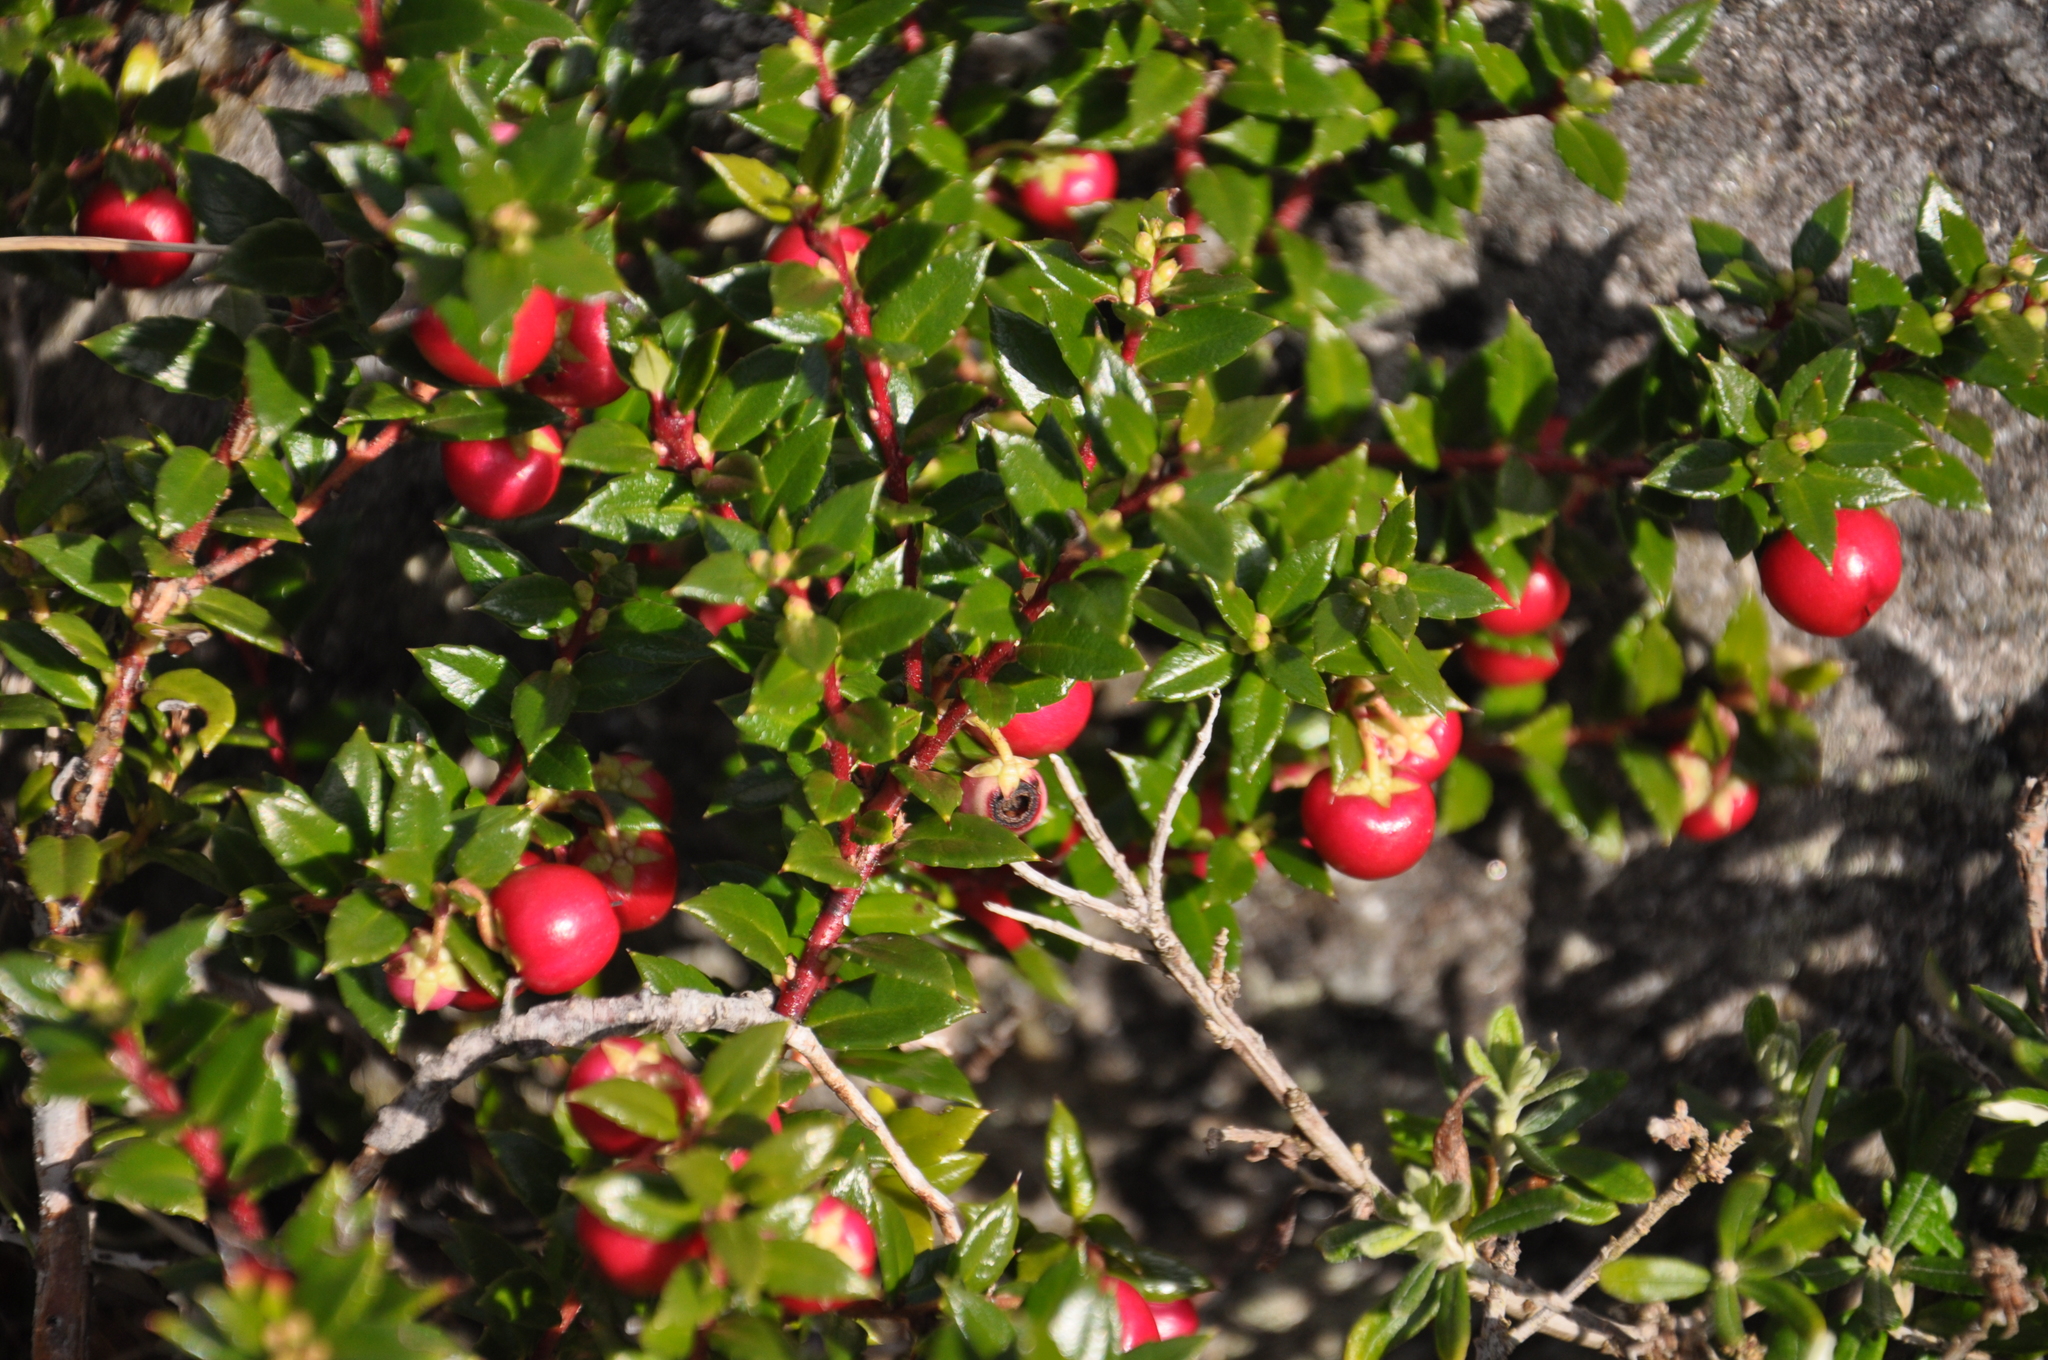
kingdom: Plantae
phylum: Tracheophyta
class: Magnoliopsida
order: Ericales
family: Ericaceae
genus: Gaultheria
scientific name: Gaultheria mucronata
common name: Prickly heath
